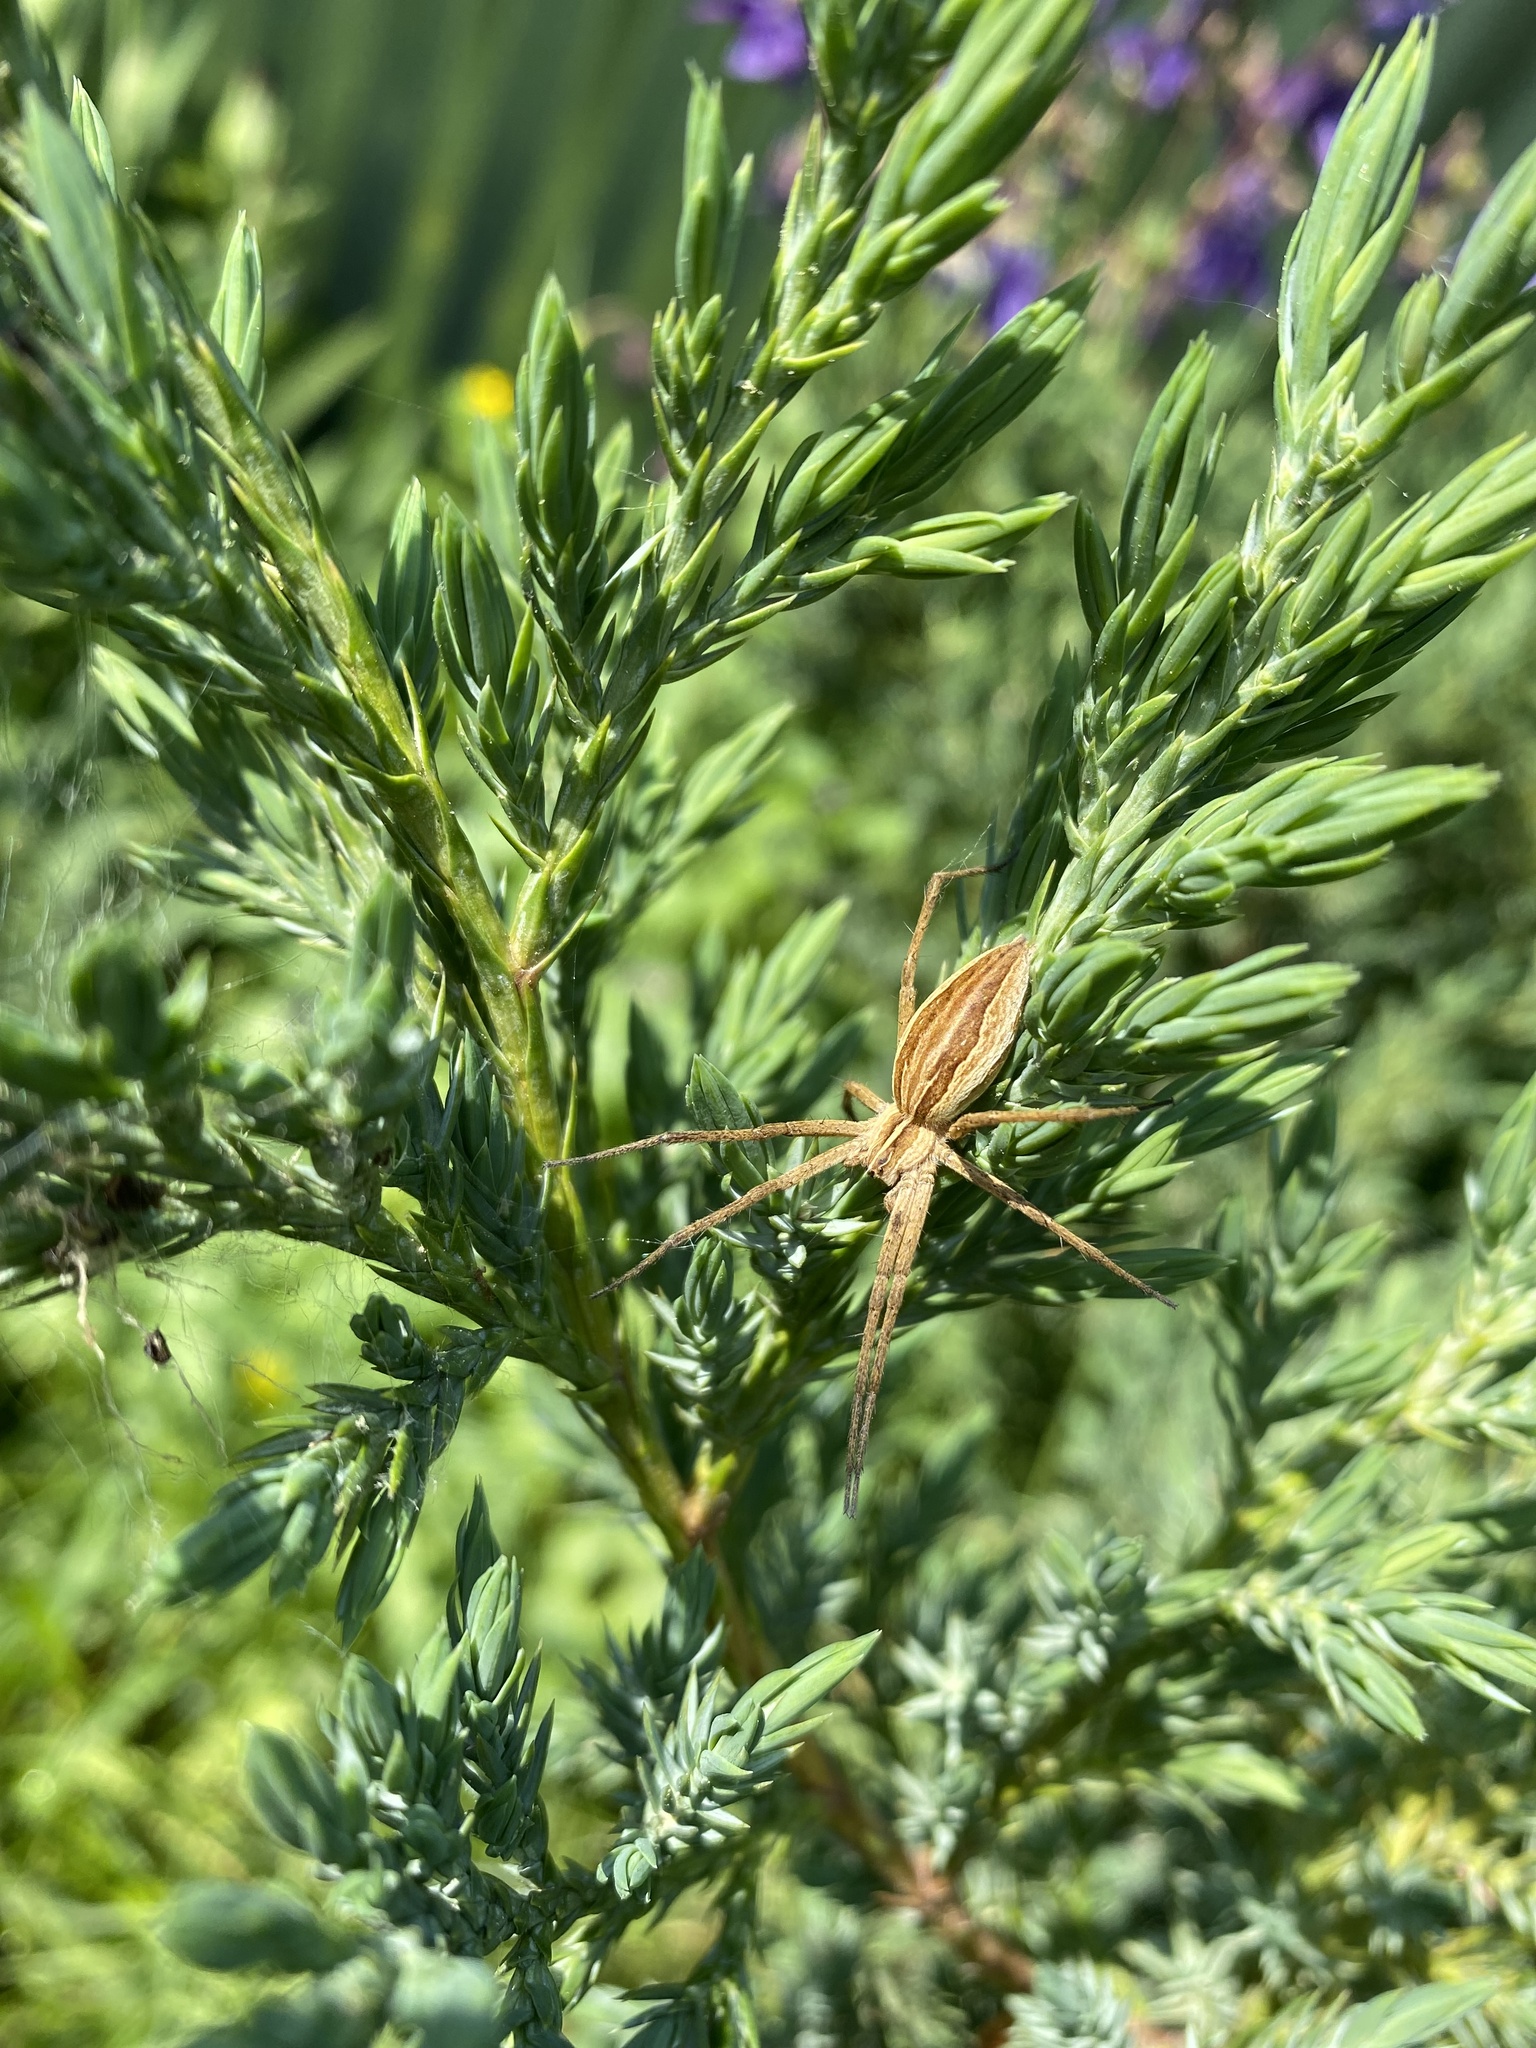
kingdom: Animalia
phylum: Arthropoda
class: Arachnida
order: Araneae
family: Pisauridae
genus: Pisaura
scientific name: Pisaura
